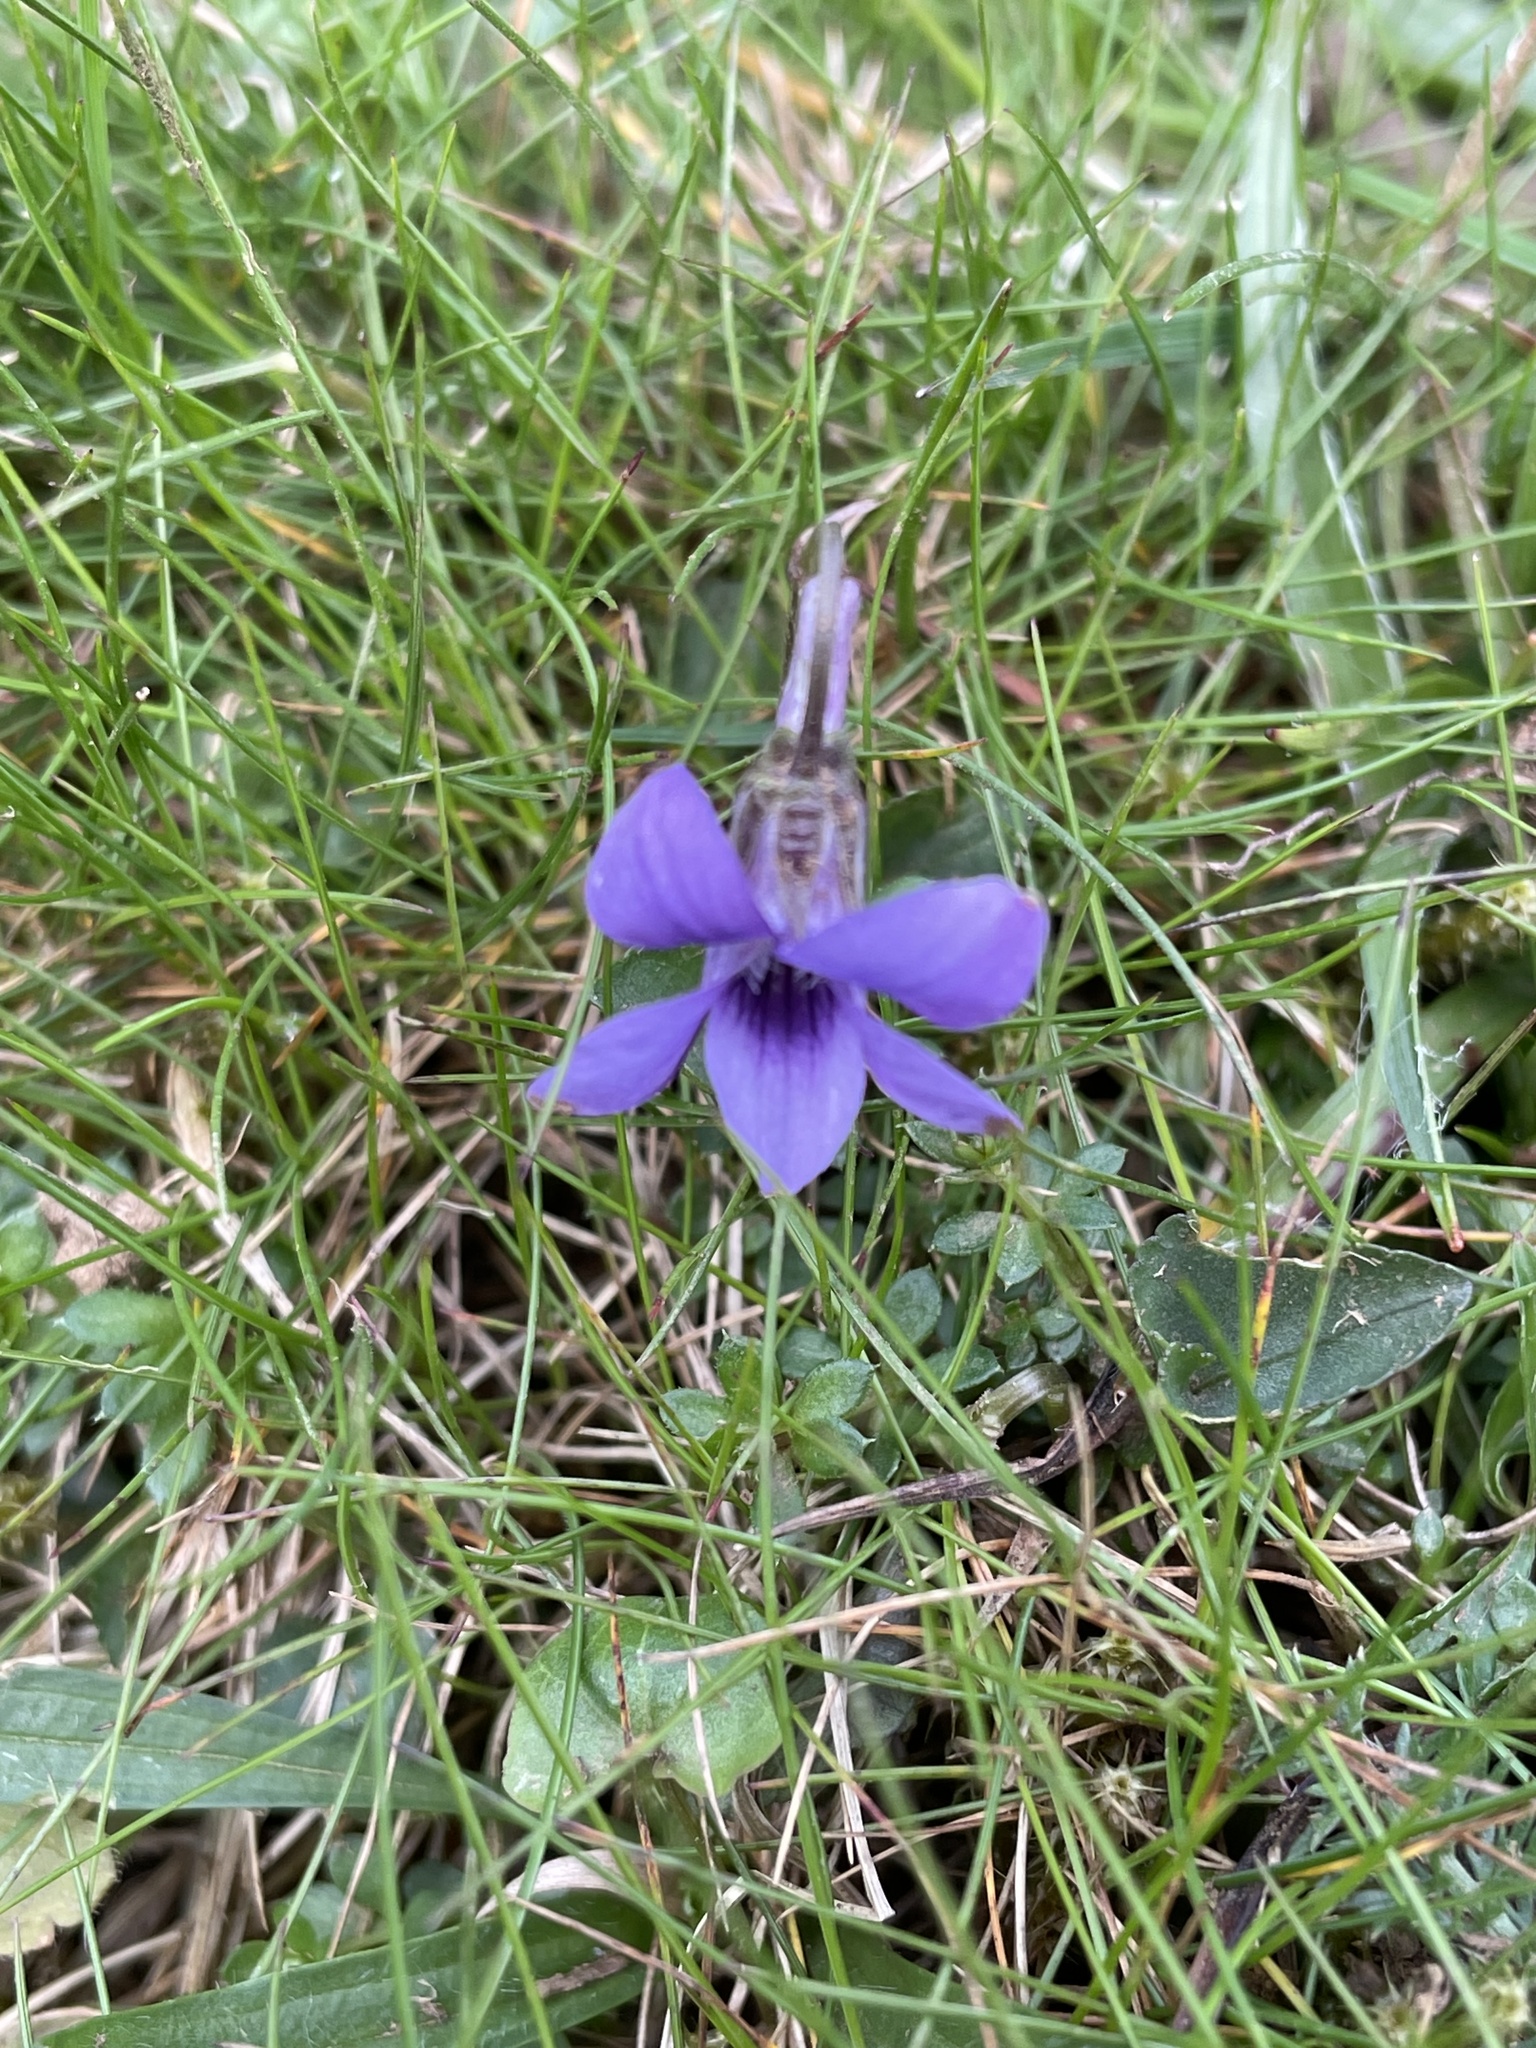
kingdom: Plantae
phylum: Tracheophyta
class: Magnoliopsida
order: Malpighiales
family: Violaceae
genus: Viola
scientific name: Viola riviniana
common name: Common dog-violet
